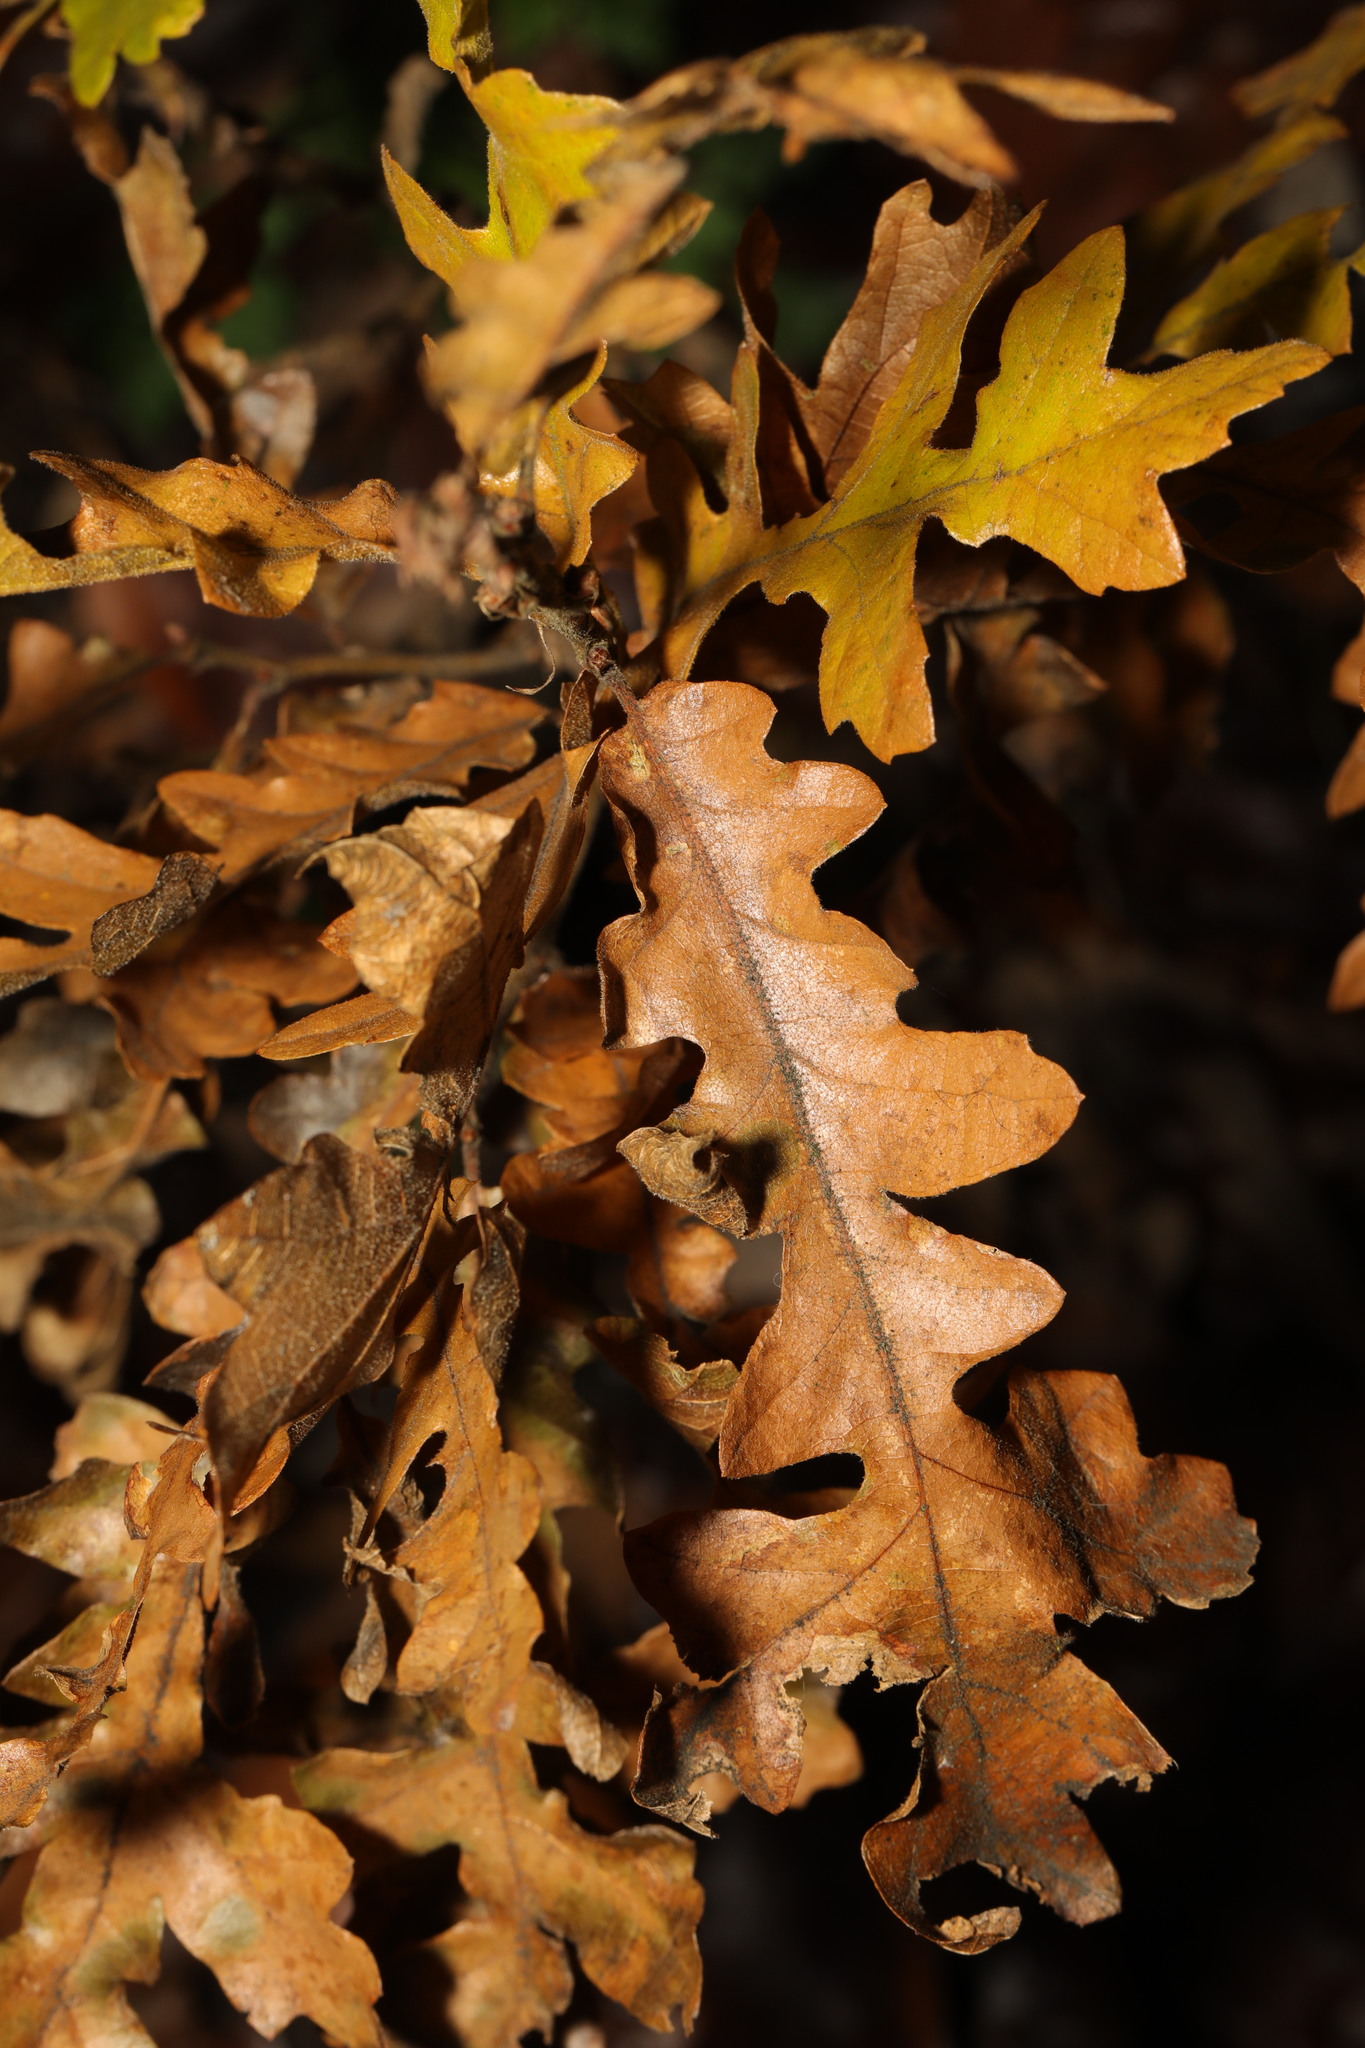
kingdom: Plantae
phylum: Tracheophyta
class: Magnoliopsida
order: Fagales
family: Fagaceae
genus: Quercus
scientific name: Quercus cerris
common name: Turkey oak
